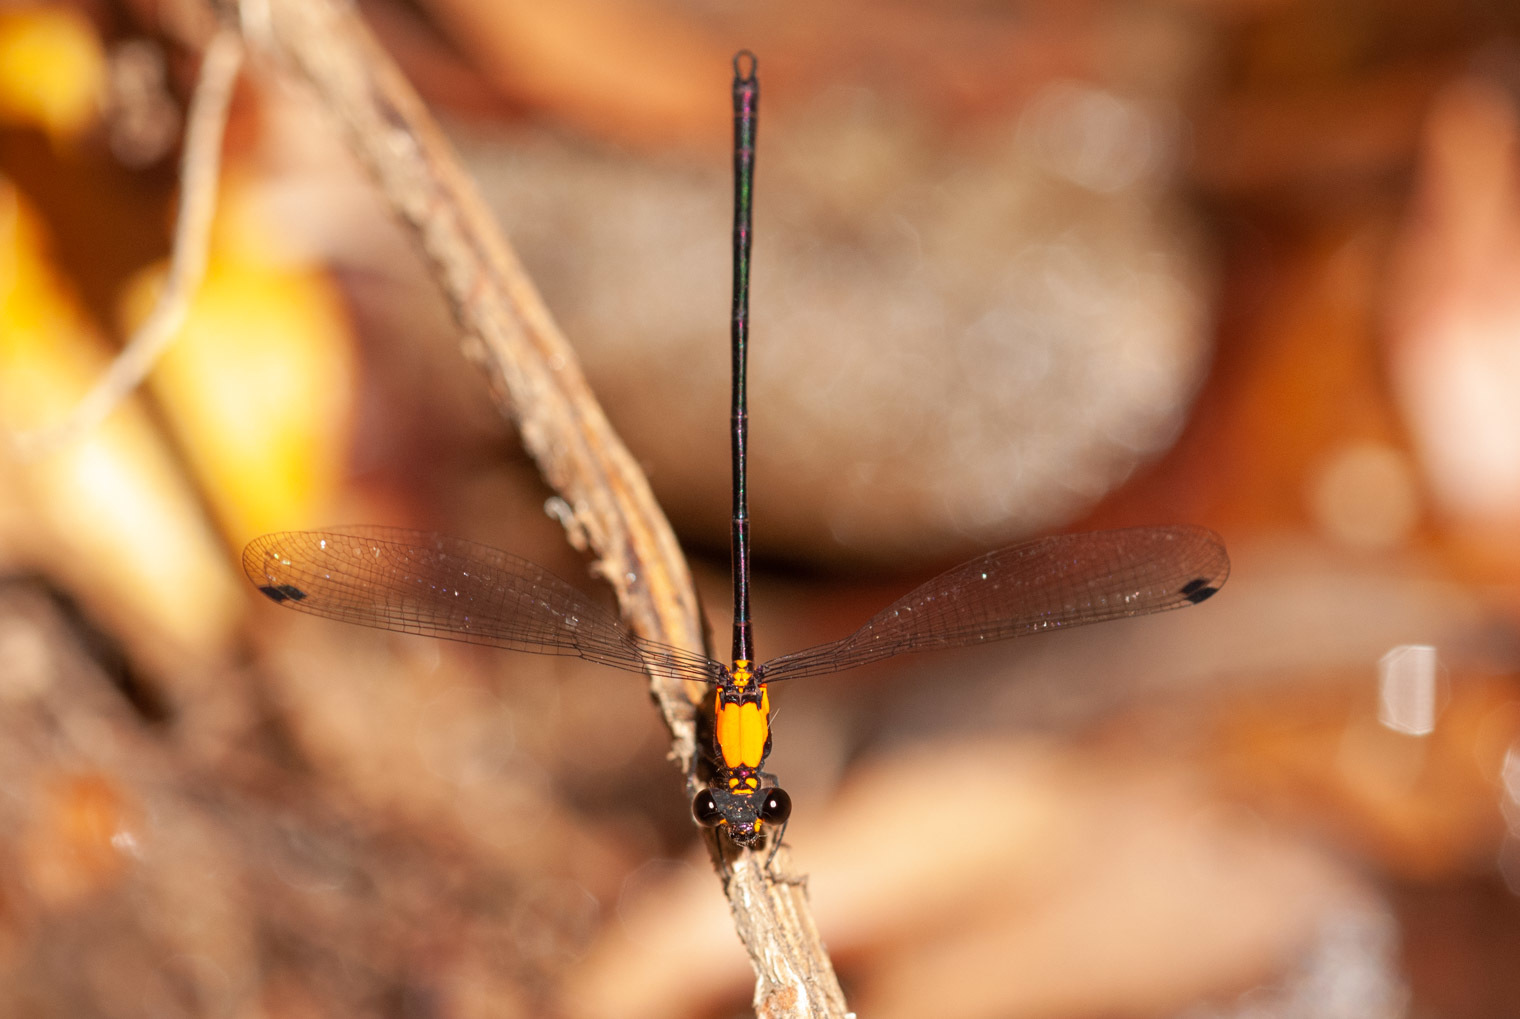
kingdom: Animalia
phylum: Arthropoda
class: Insecta
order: Odonata
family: Argiolestidae
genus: Austroargiolestes
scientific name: Austroargiolestes chrysoides
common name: Golden flatwing
